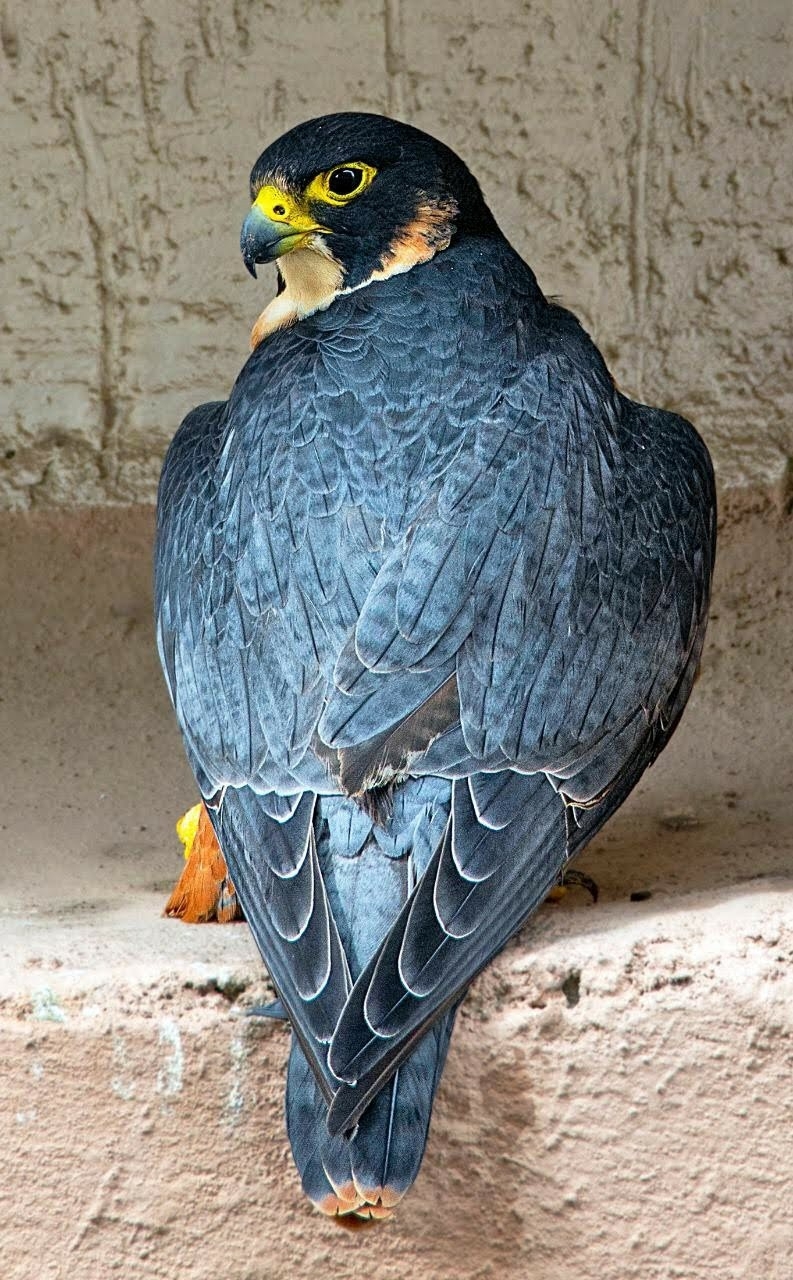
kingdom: Animalia
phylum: Chordata
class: Aves
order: Falconiformes
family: Falconidae
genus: Falco
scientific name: Falco peregrinus
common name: Peregrine falcon
